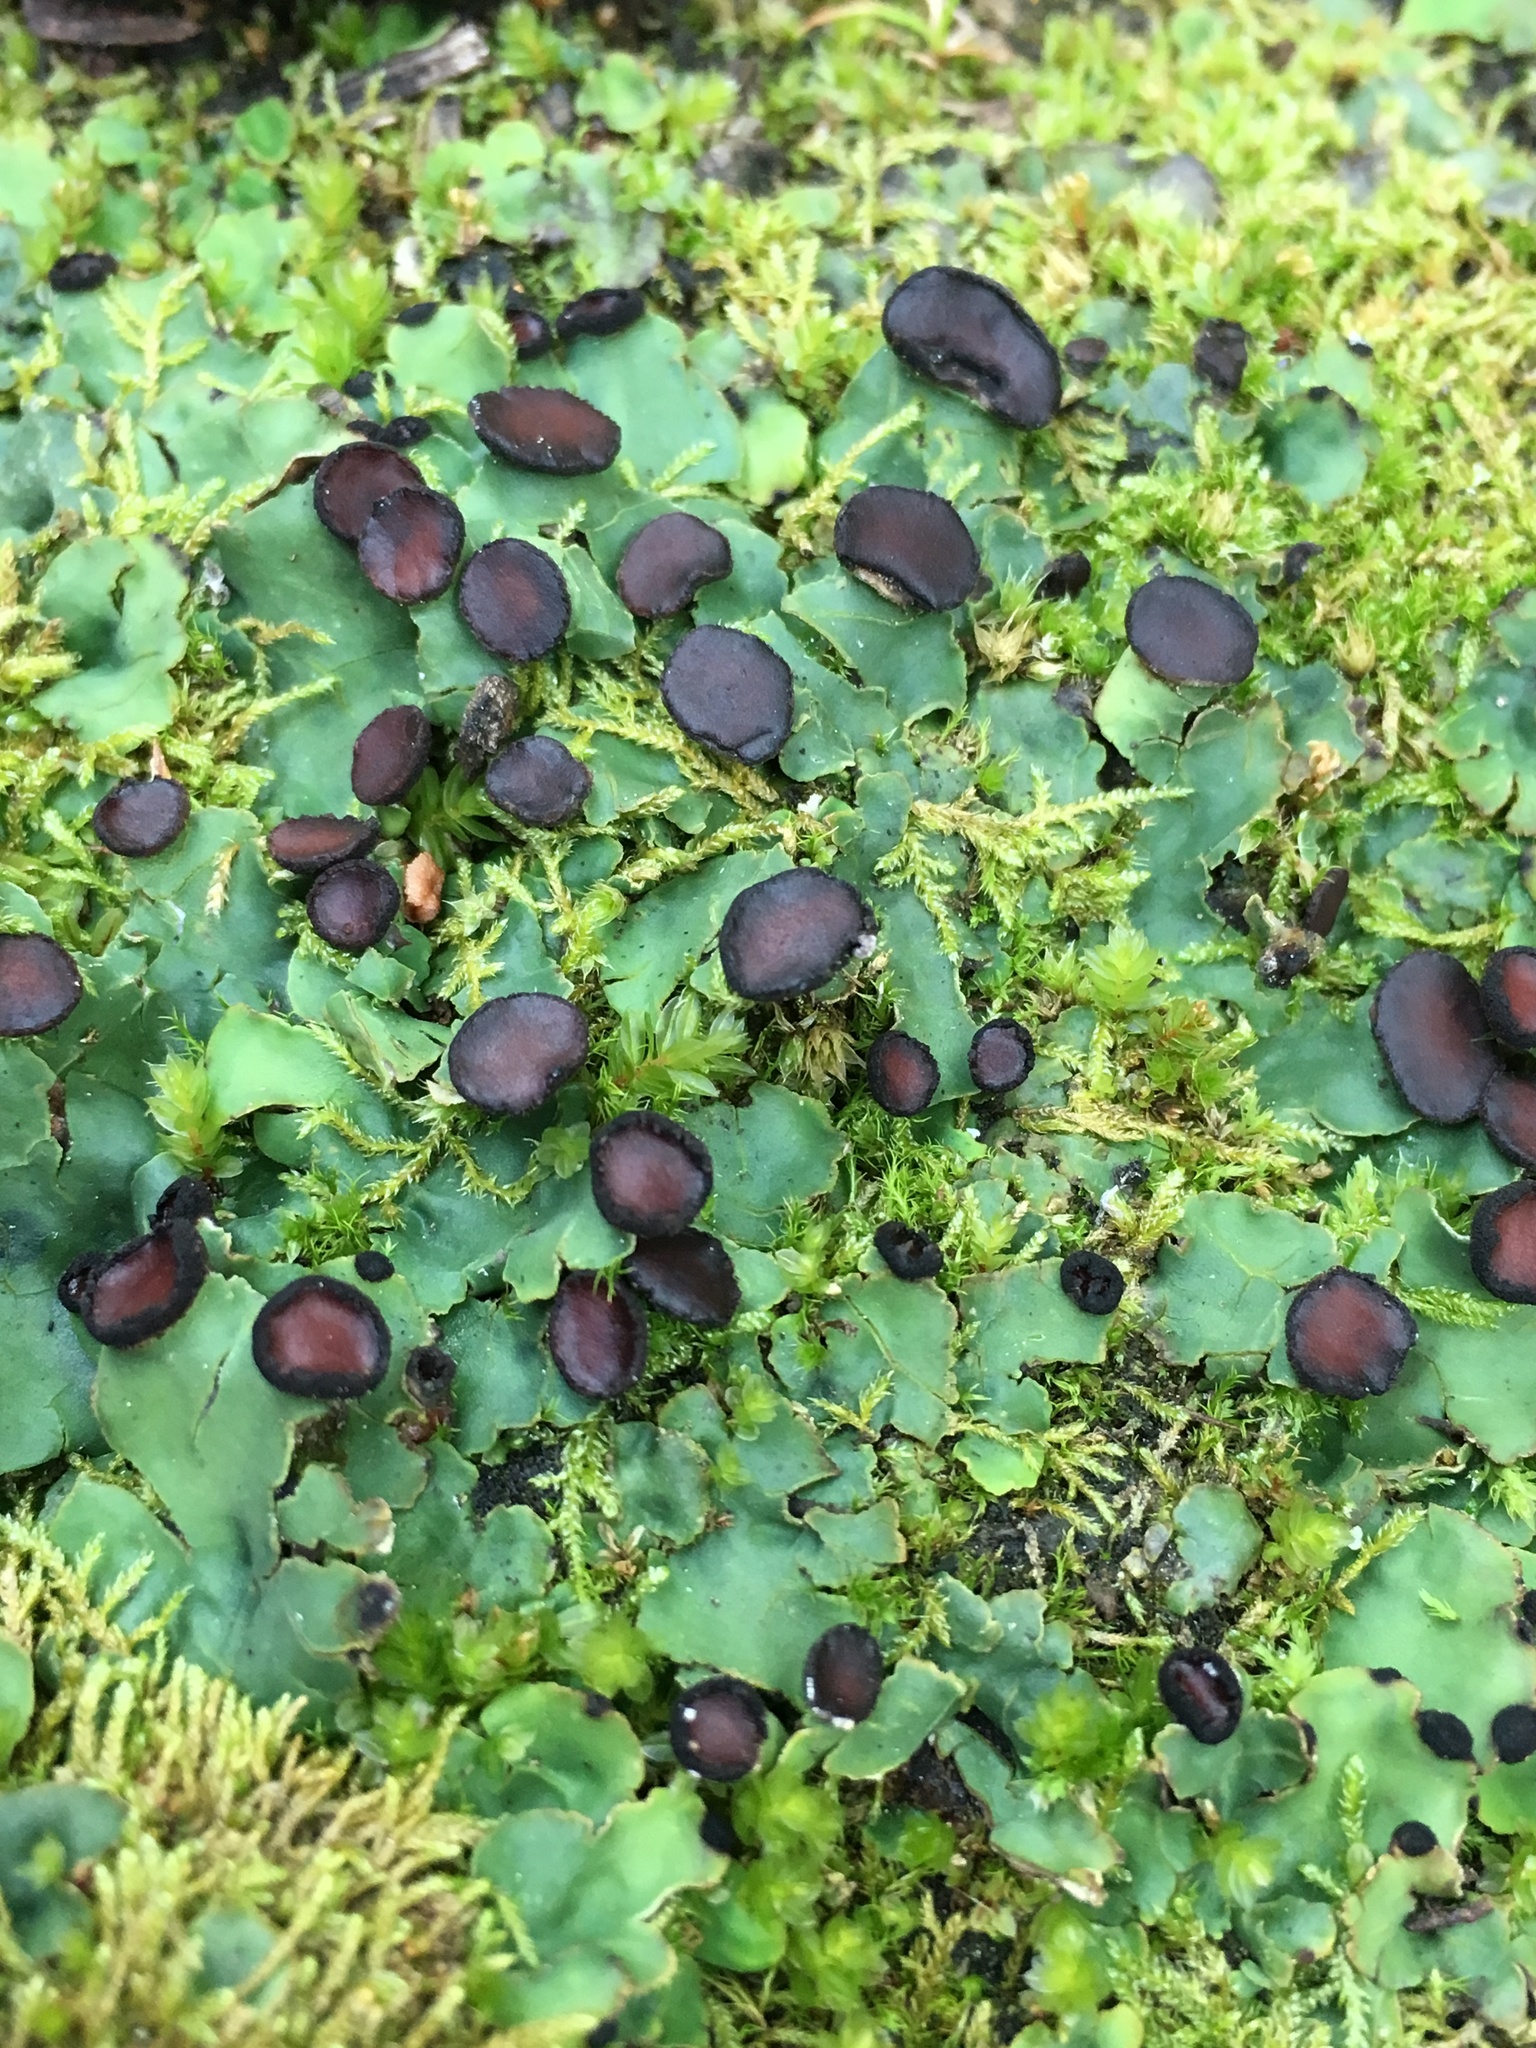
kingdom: Fungi
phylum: Ascomycota
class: Lecanoromycetes
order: Peltigerales
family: Peltigeraceae
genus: Peltigera
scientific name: Peltigera venosa
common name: Pixie gowns lichen
